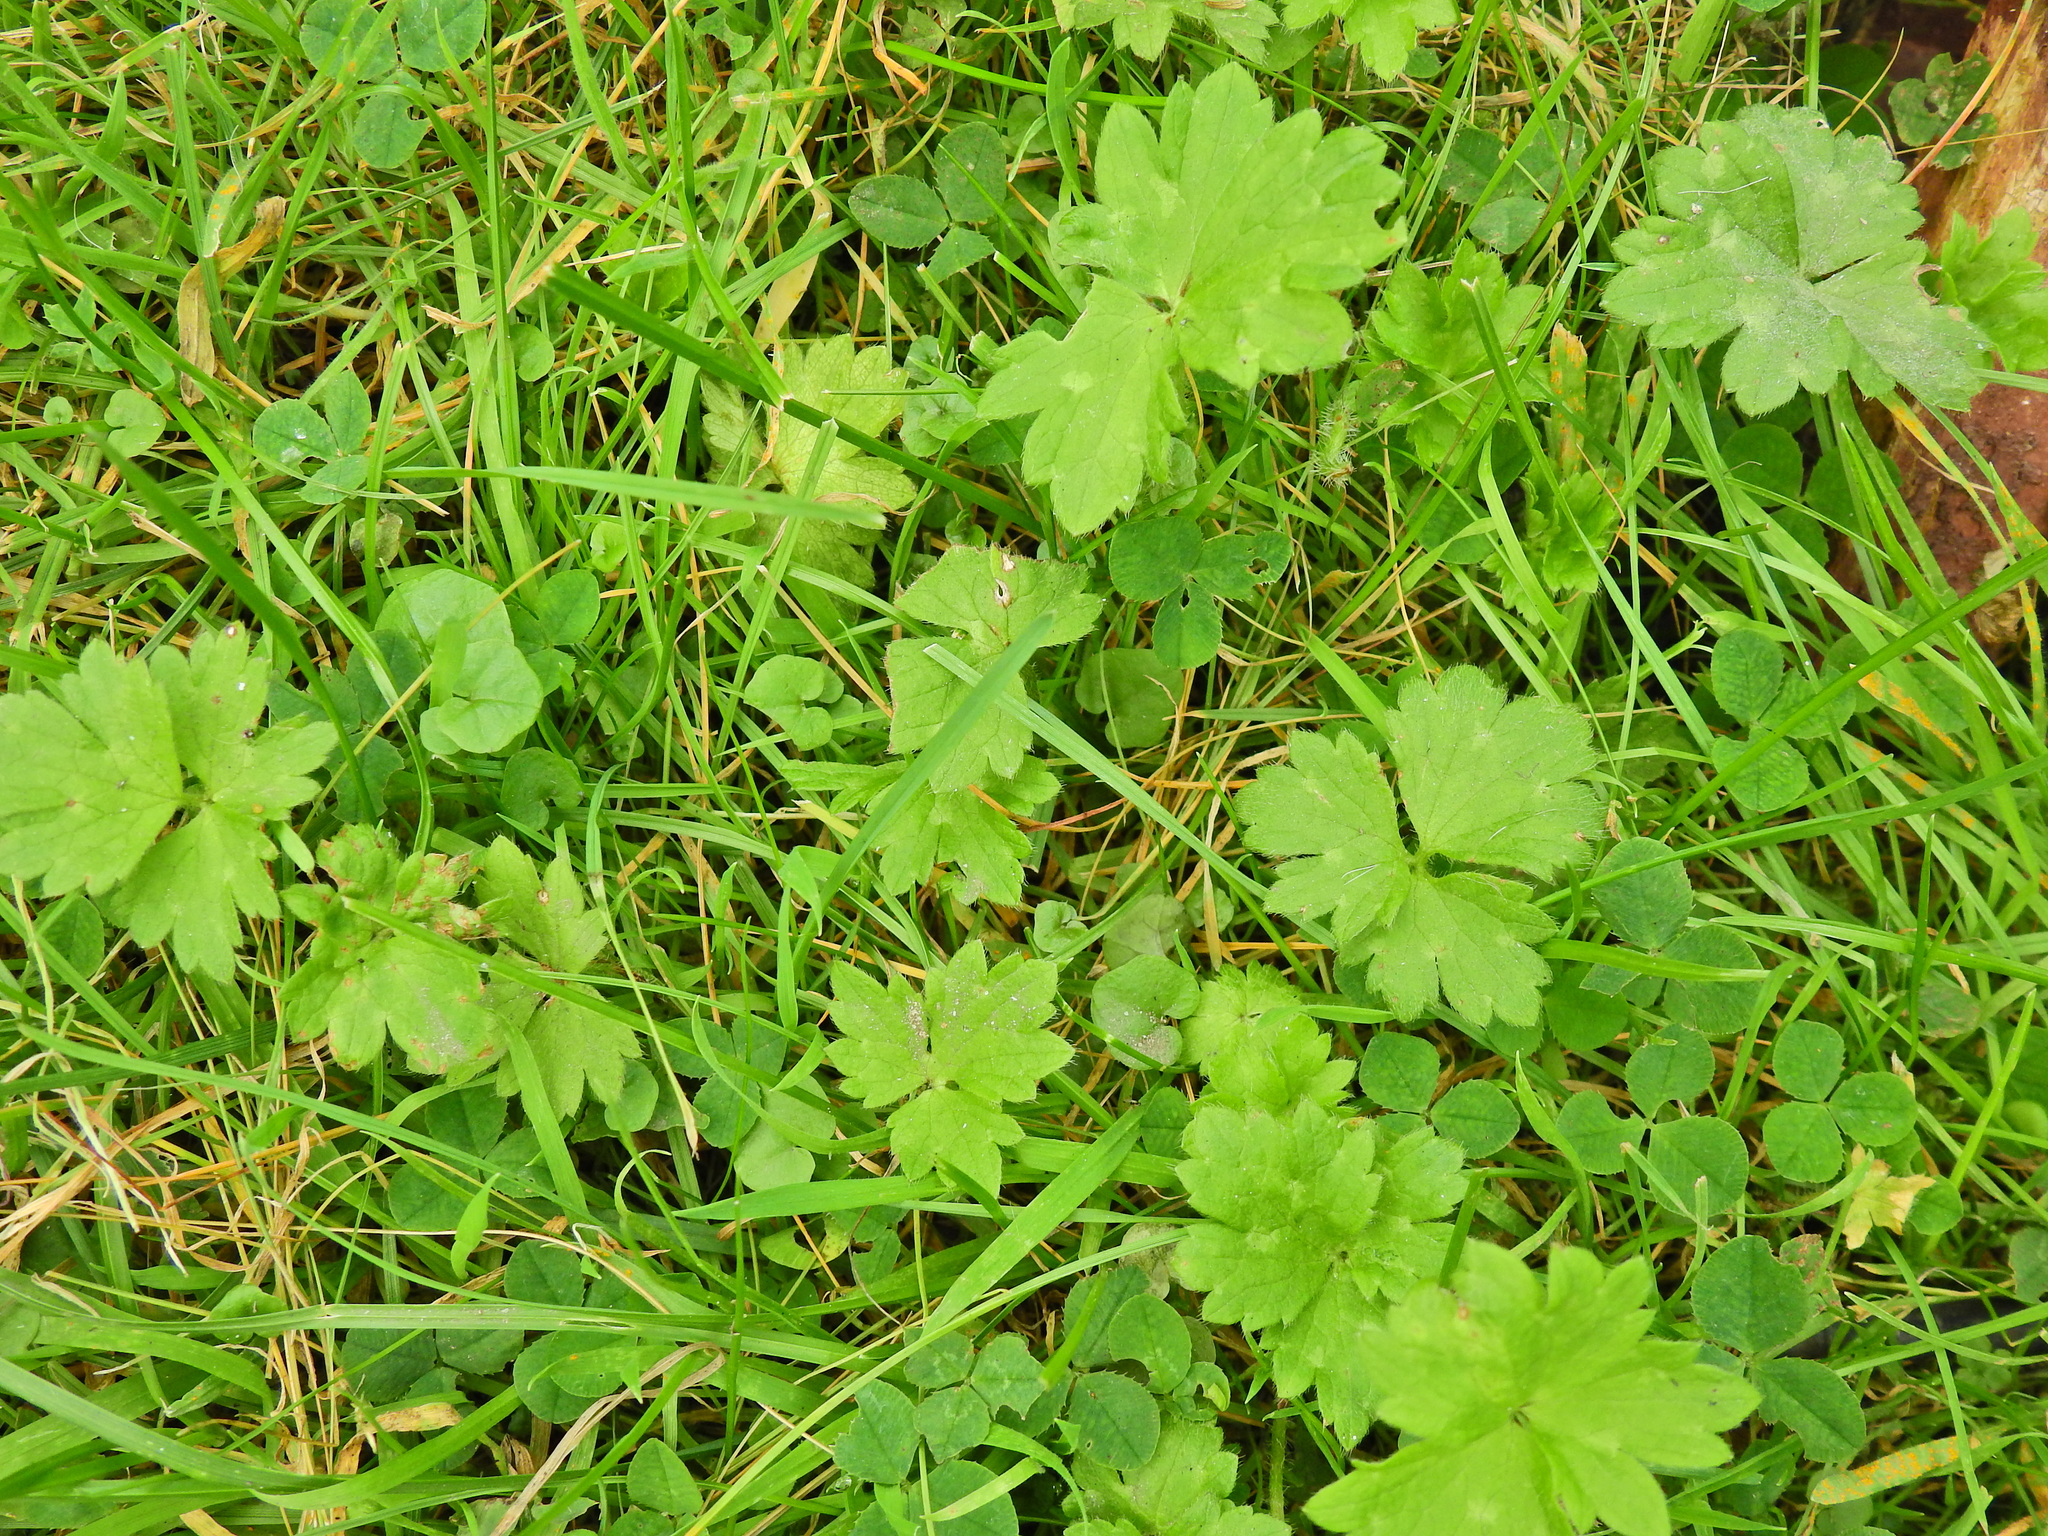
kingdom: Plantae
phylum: Tracheophyta
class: Magnoliopsida
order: Ranunculales
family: Ranunculaceae
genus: Ranunculus
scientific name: Ranunculus repens
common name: Creeping buttercup
